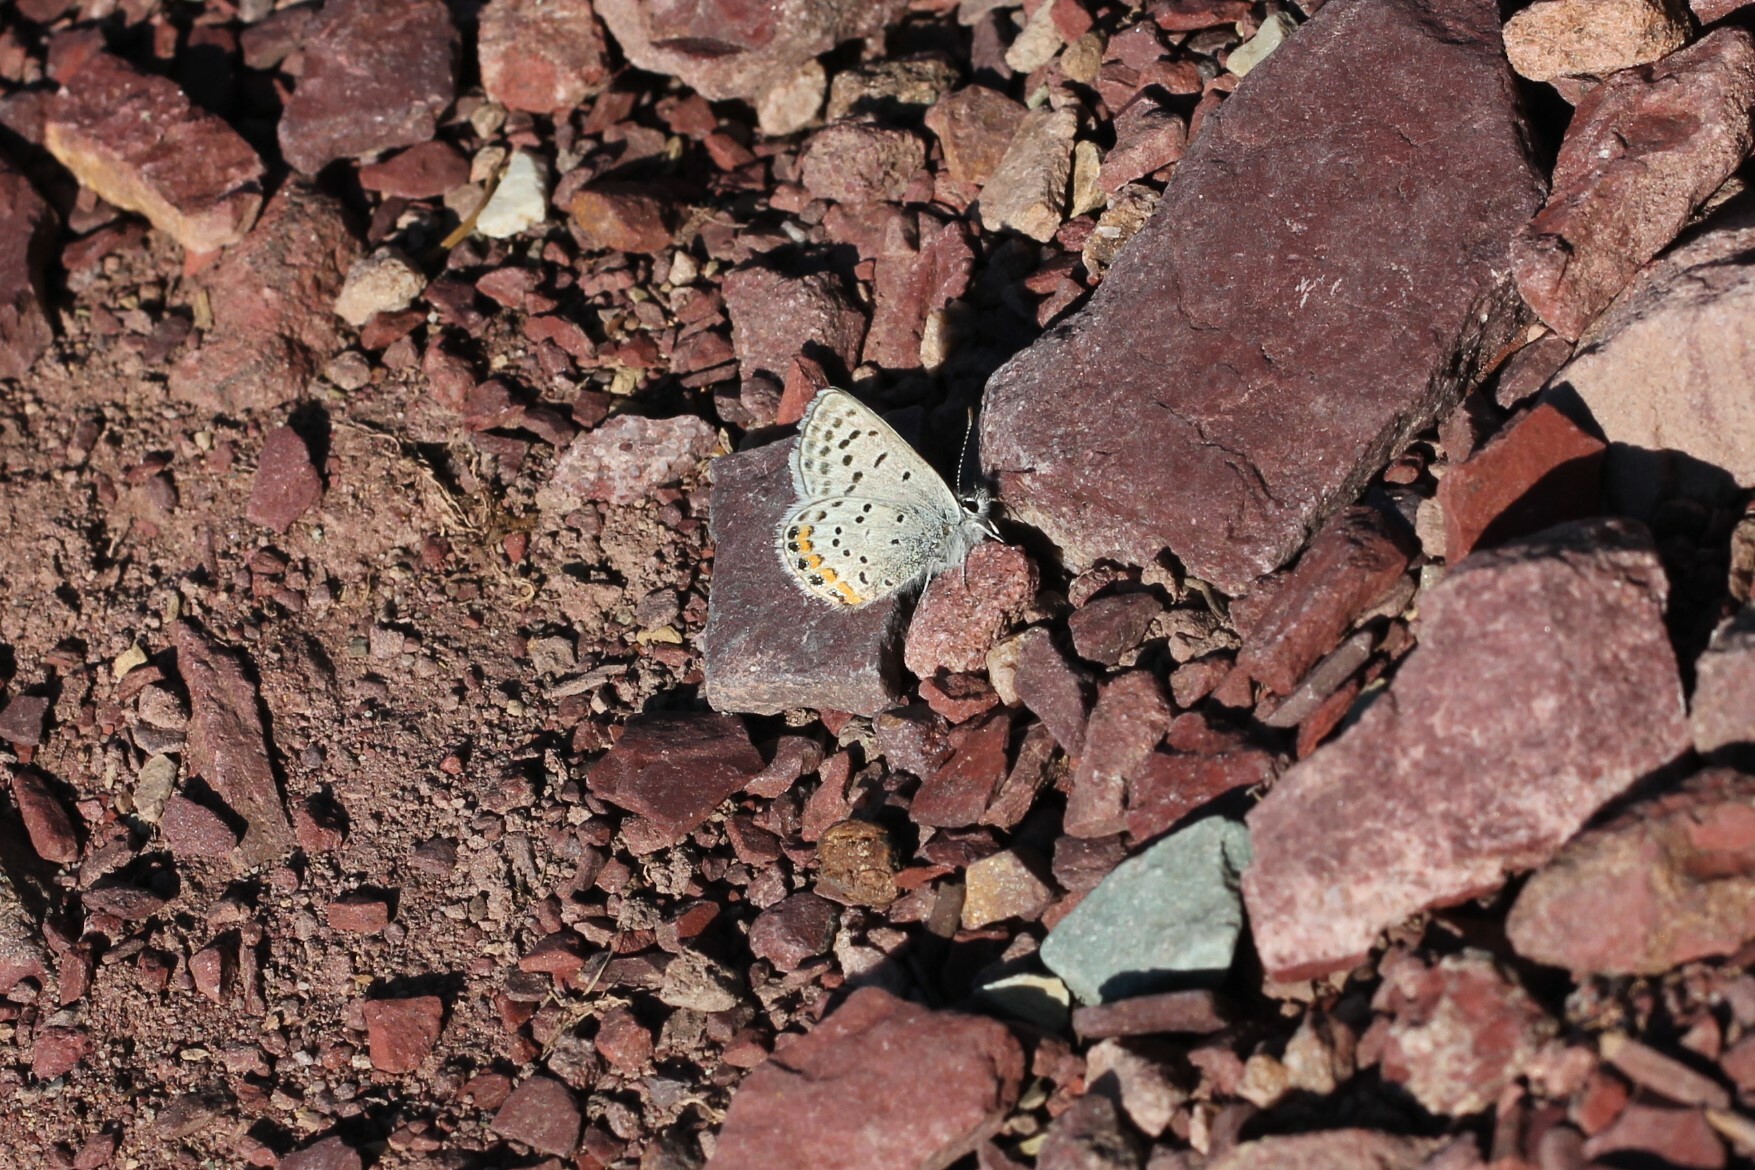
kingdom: Animalia
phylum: Arthropoda
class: Insecta
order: Lepidoptera
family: Lycaenidae
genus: Icaricia
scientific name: Icaricia lupini
